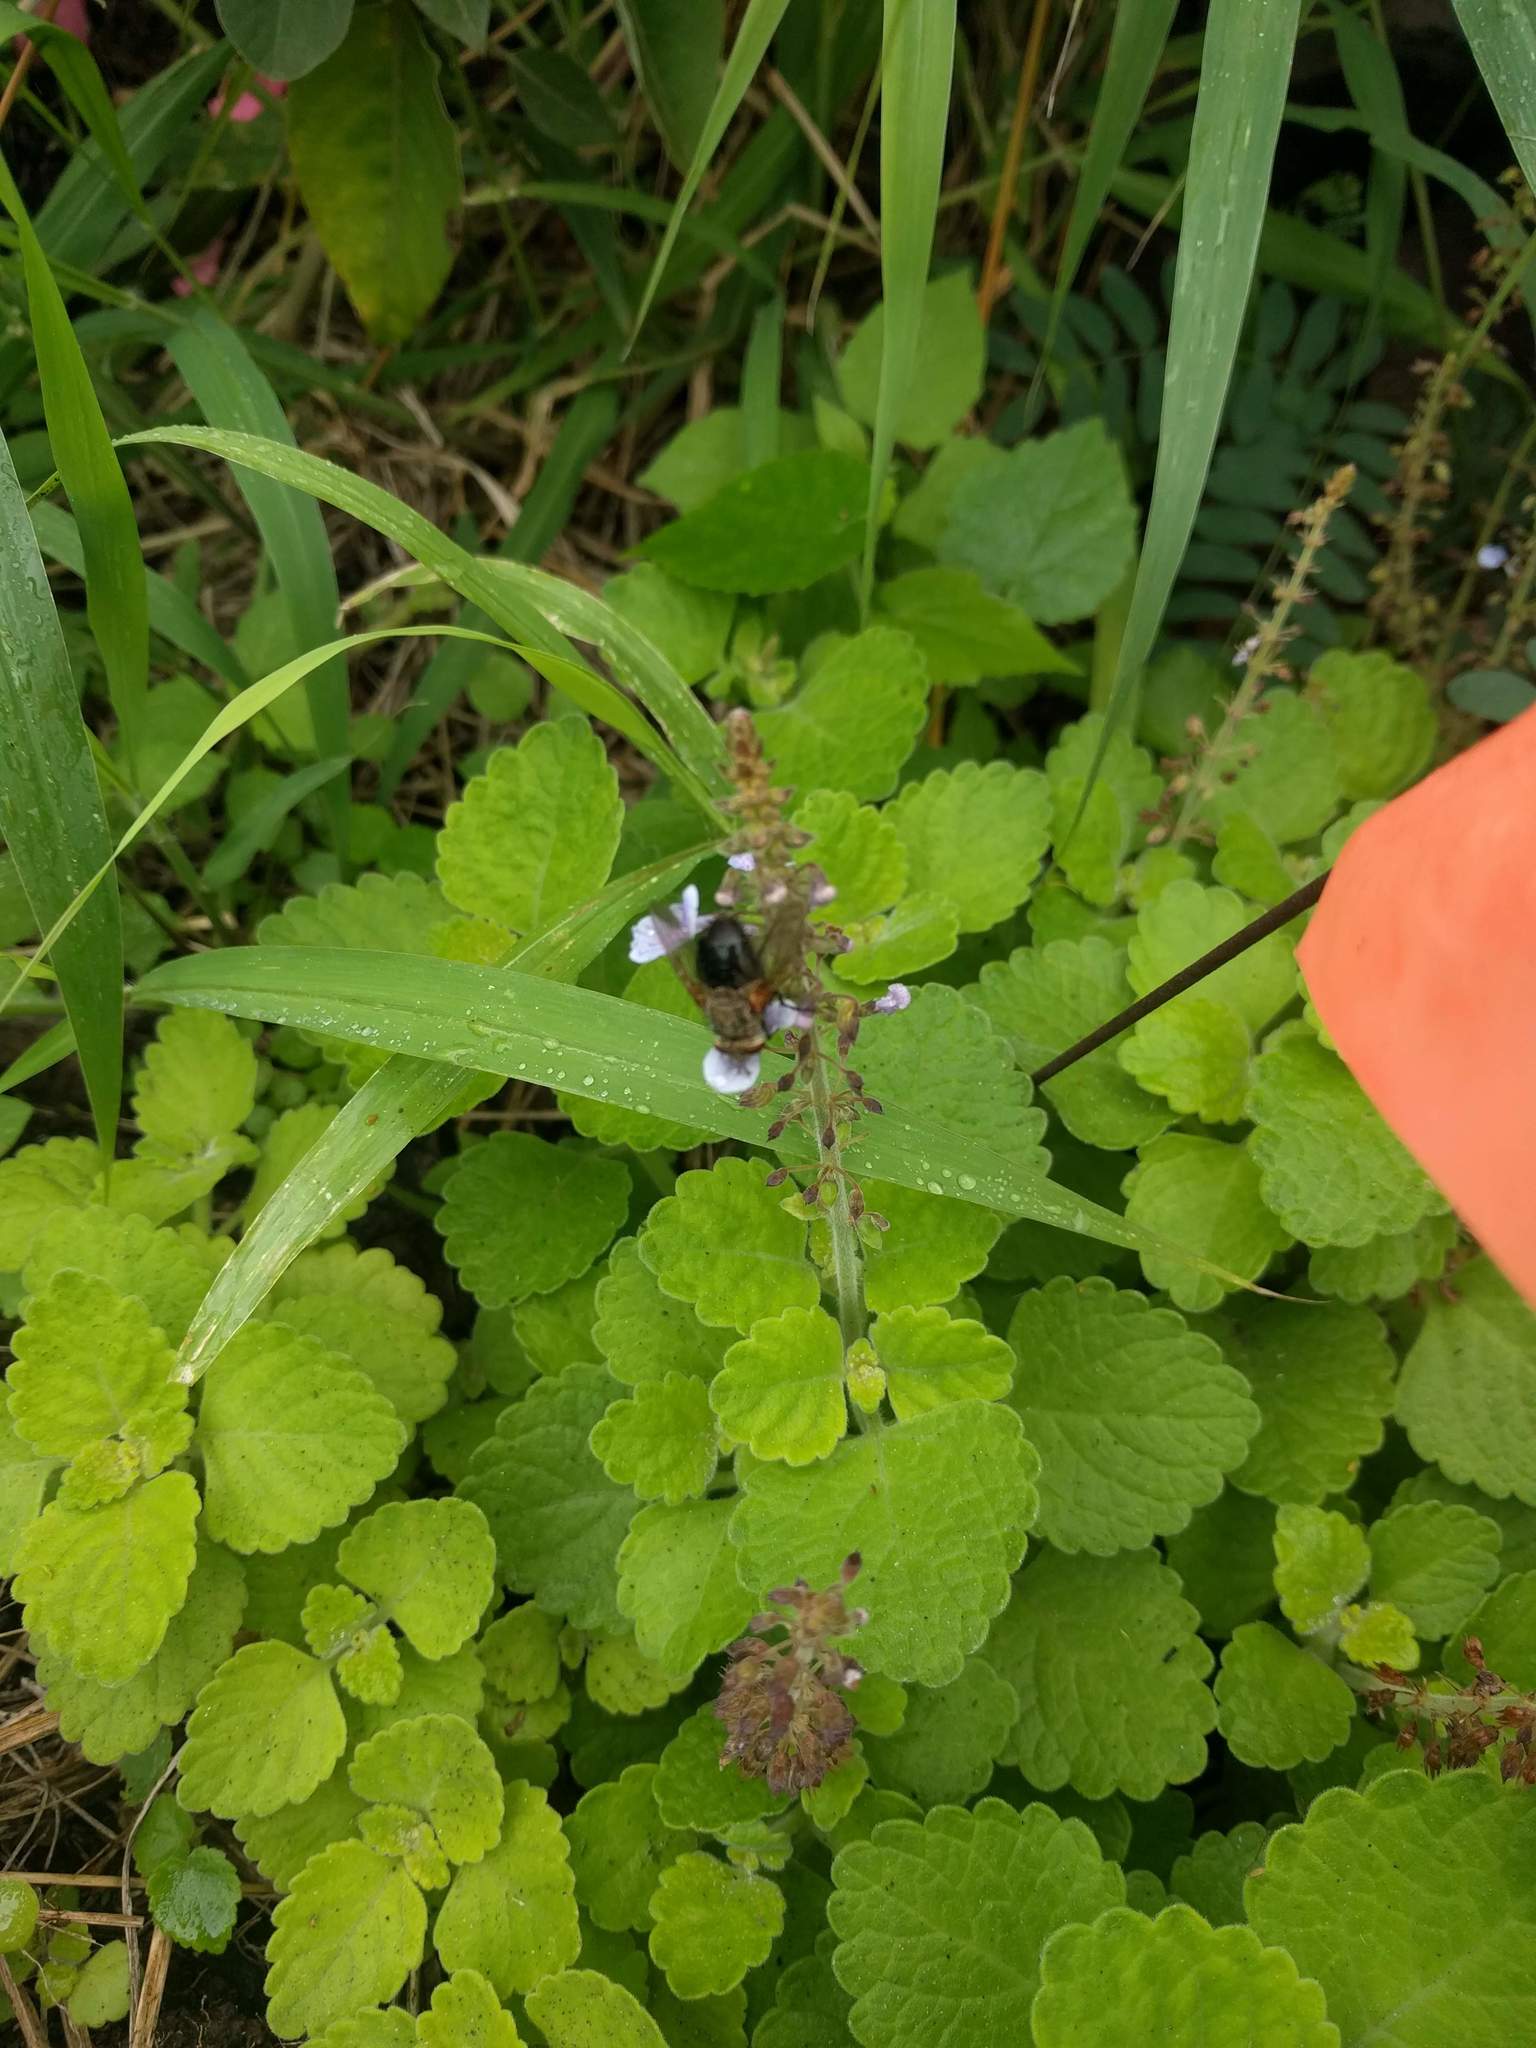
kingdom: Plantae
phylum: Tracheophyta
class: Magnoliopsida
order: Lamiales
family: Lamiaceae
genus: Coleus
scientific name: Coleus australis
